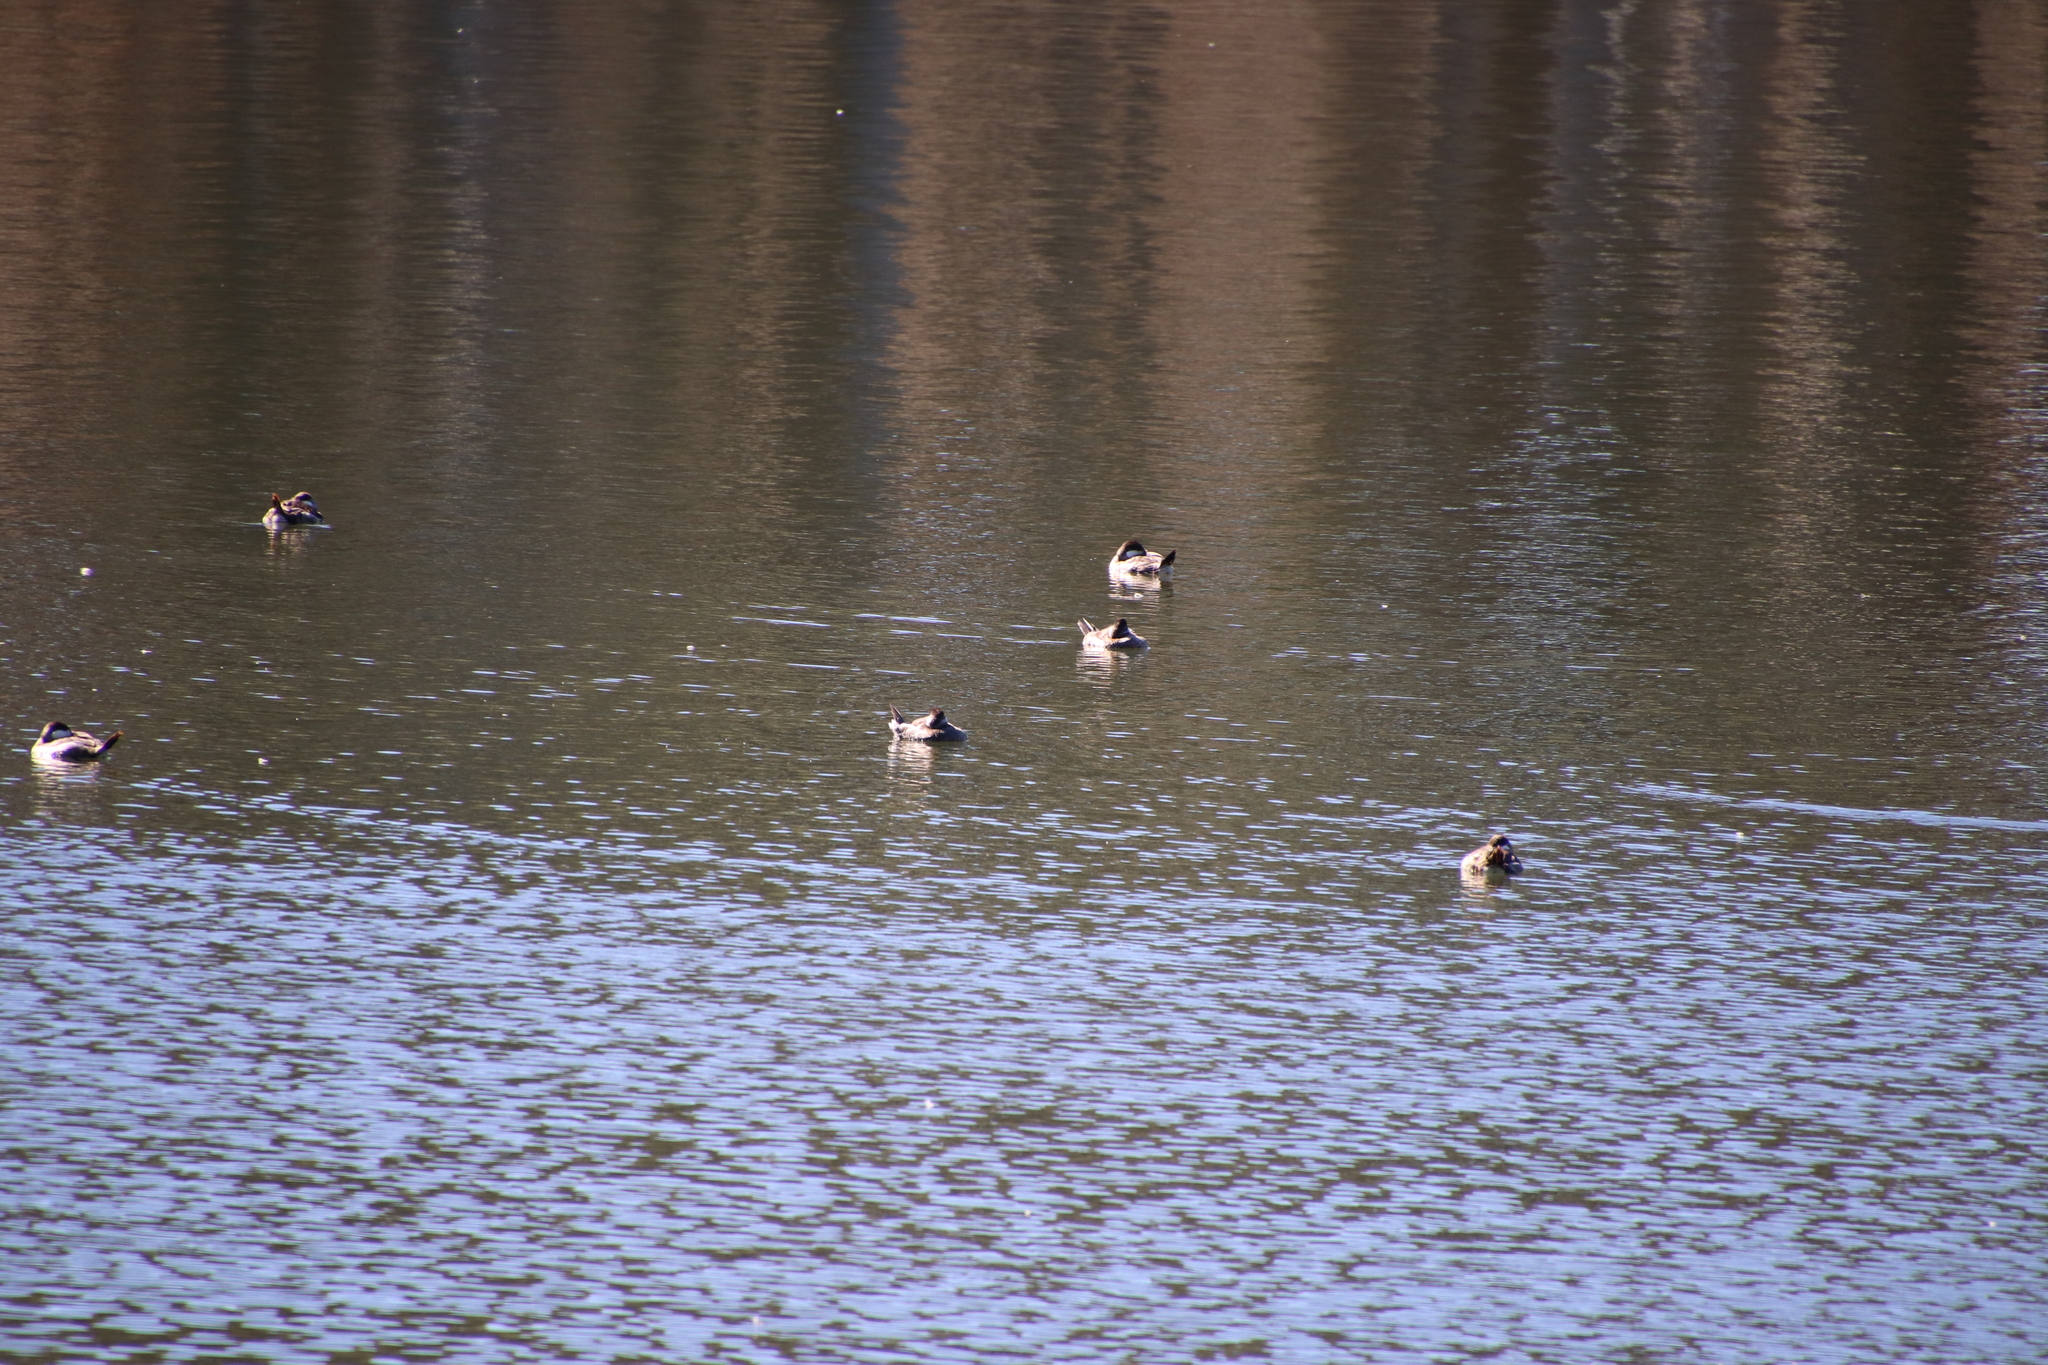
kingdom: Animalia
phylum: Chordata
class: Aves
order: Anseriformes
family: Anatidae
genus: Oxyura
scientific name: Oxyura jamaicensis
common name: Ruddy duck
